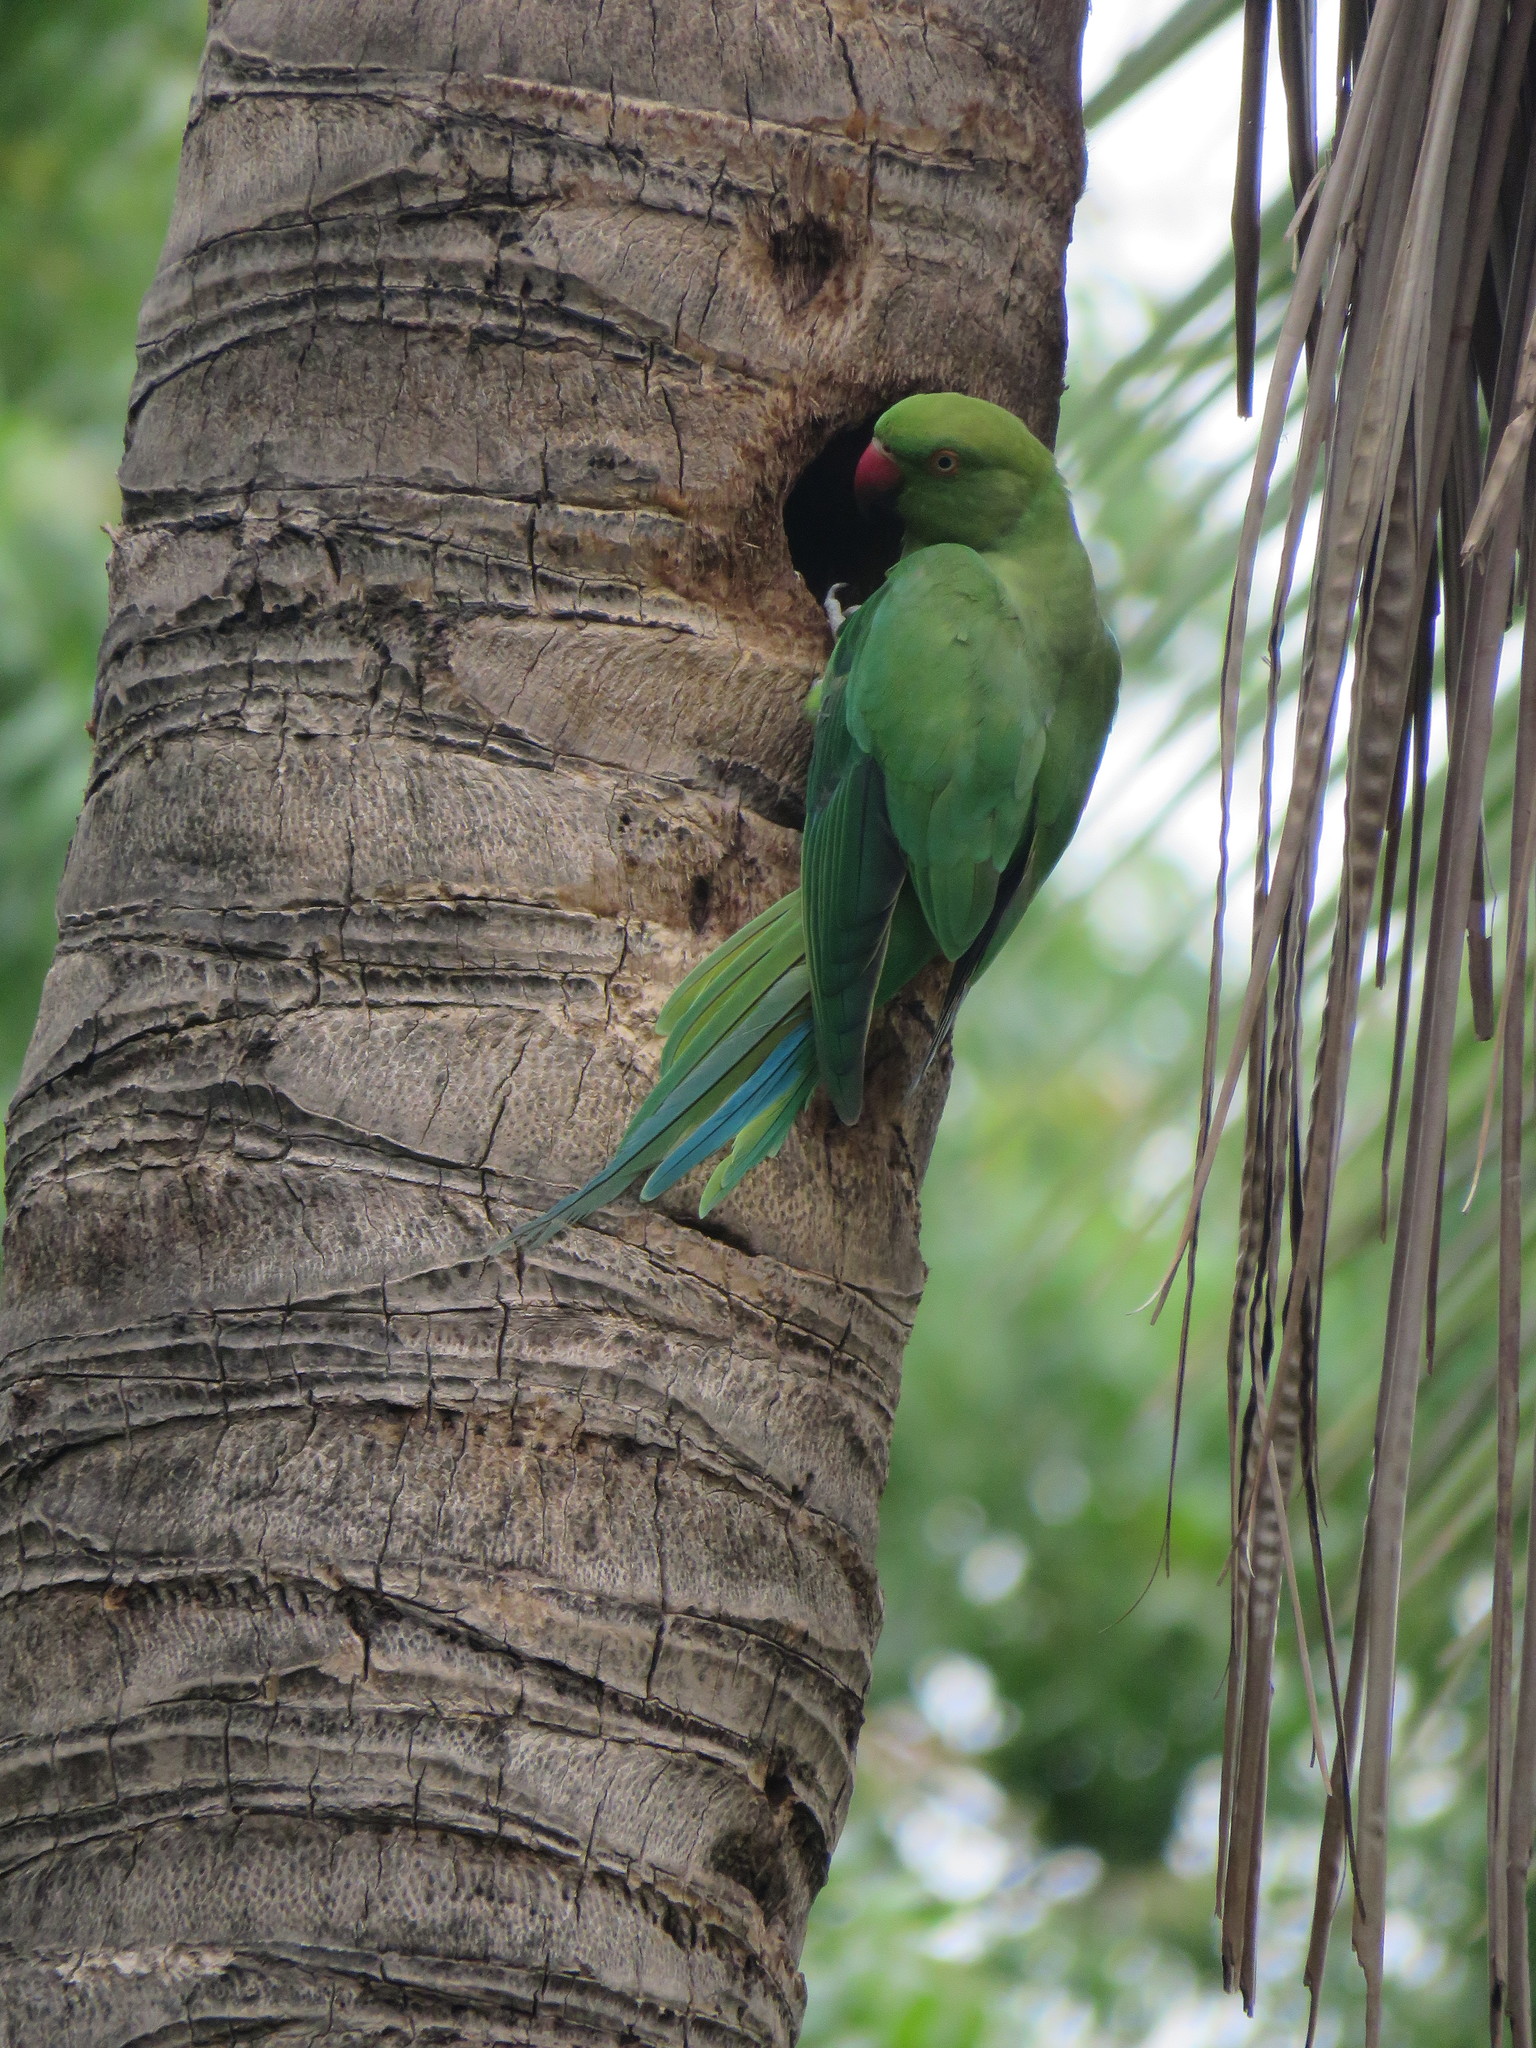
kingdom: Animalia
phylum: Chordata
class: Aves
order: Psittaciformes
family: Psittacidae
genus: Psittacula
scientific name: Psittacula krameri
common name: Rose-ringed parakeet
